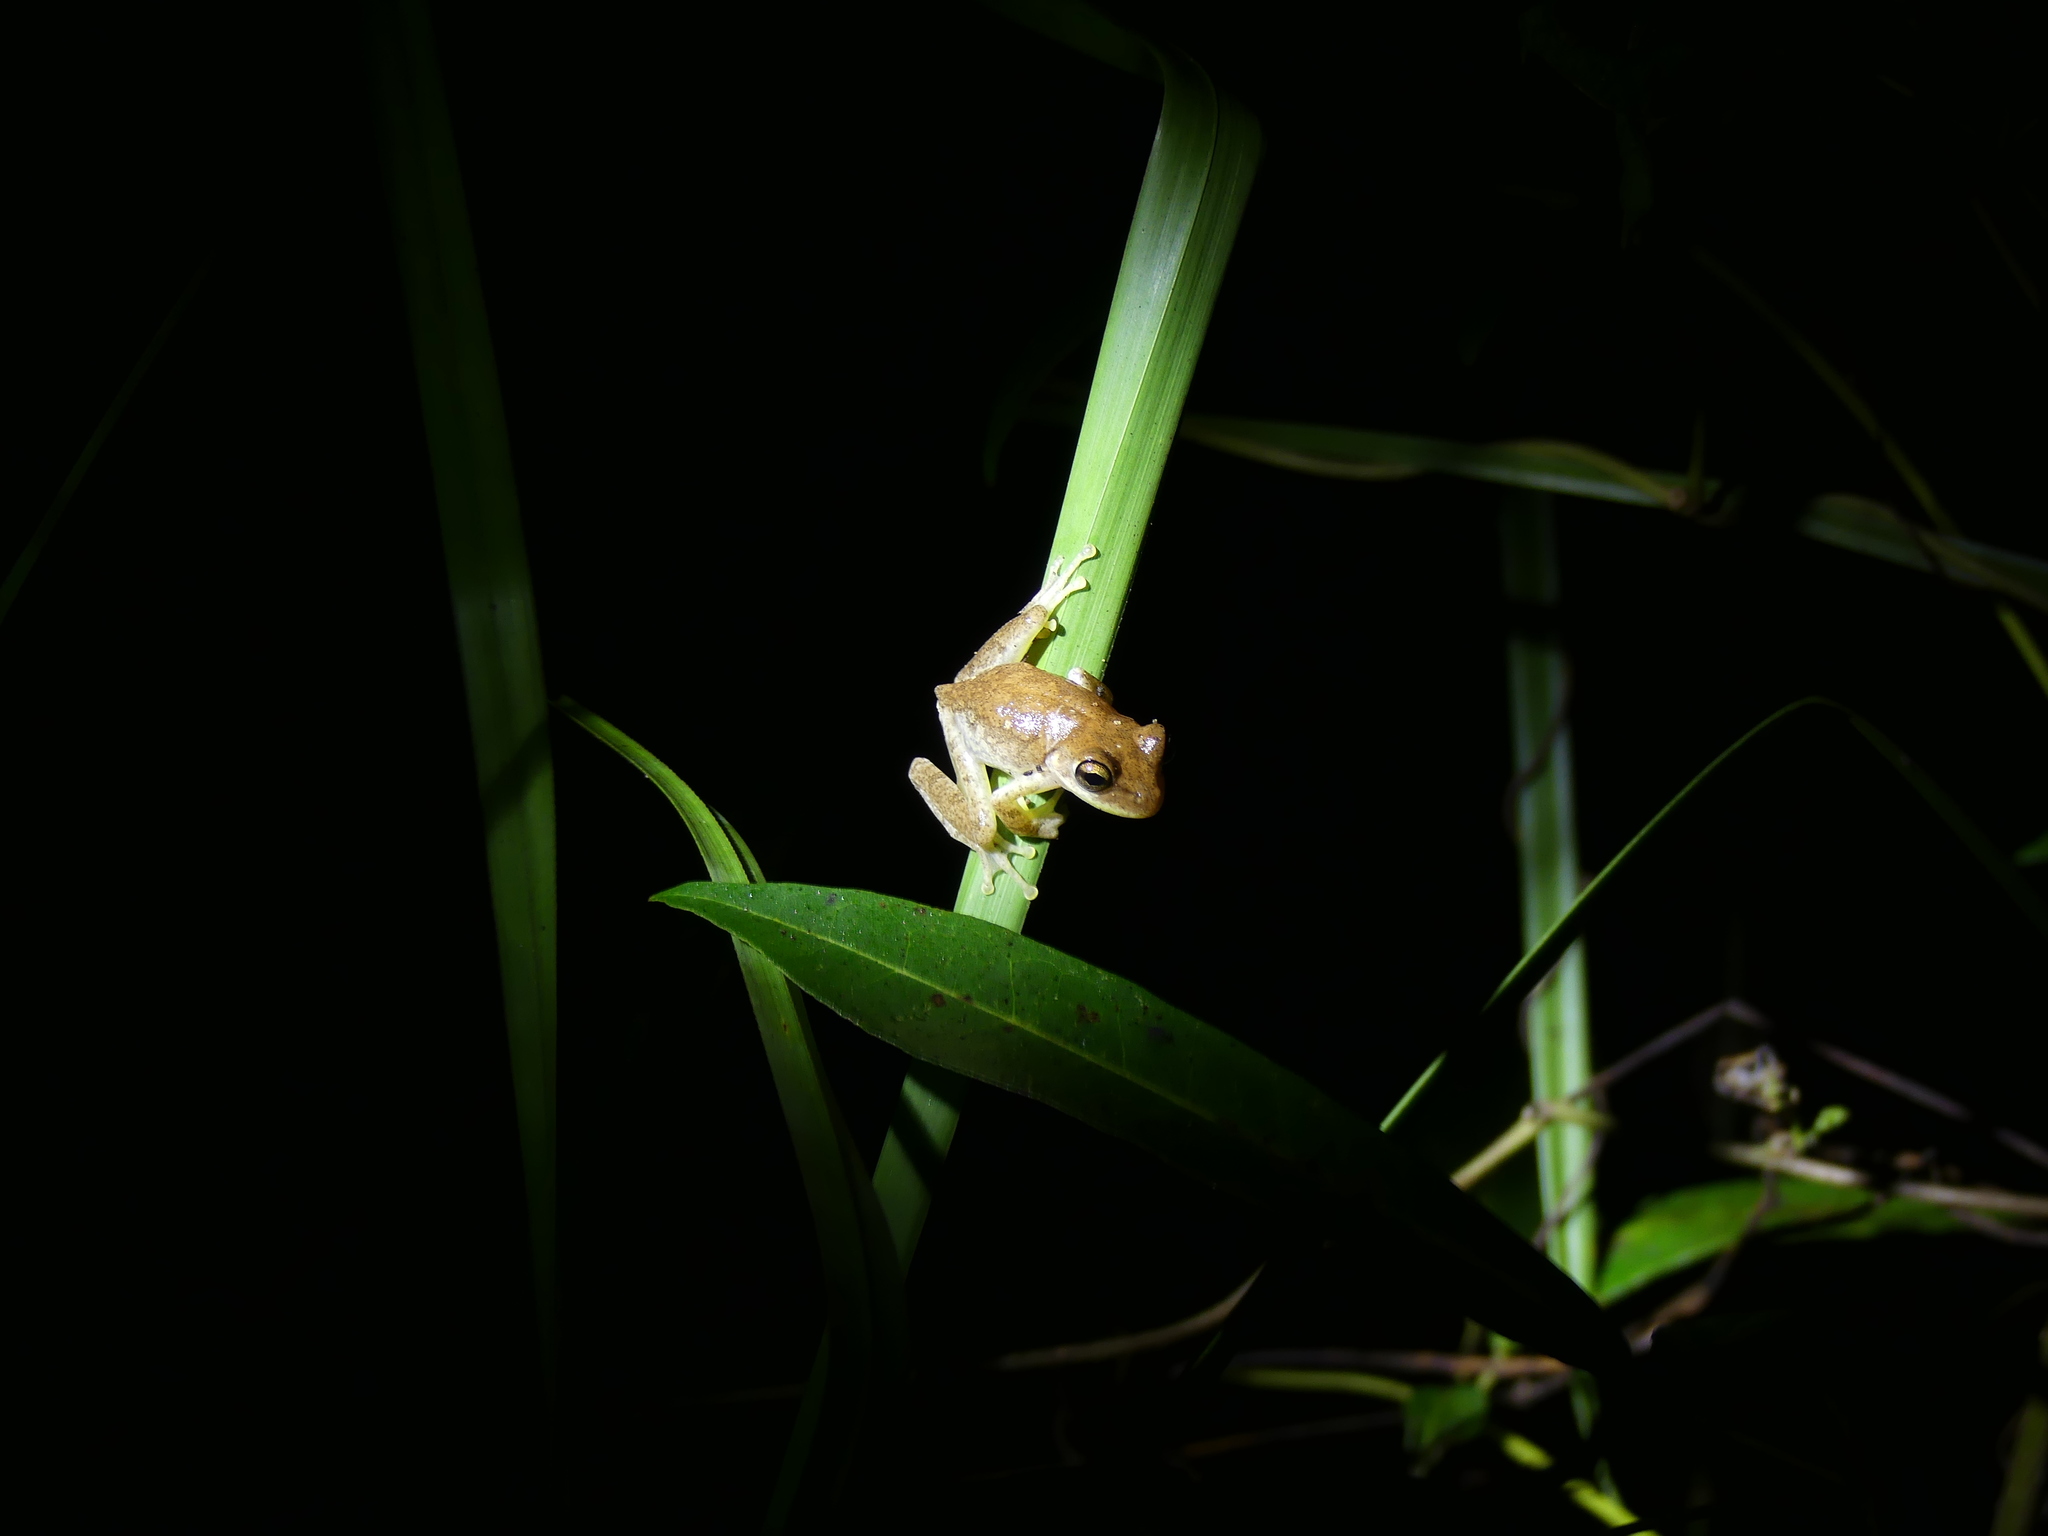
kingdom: Animalia
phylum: Chordata
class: Amphibia
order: Anura
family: Hylidae
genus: Osteopilus
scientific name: Osteopilus septentrionalis
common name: Cuban treefrog
